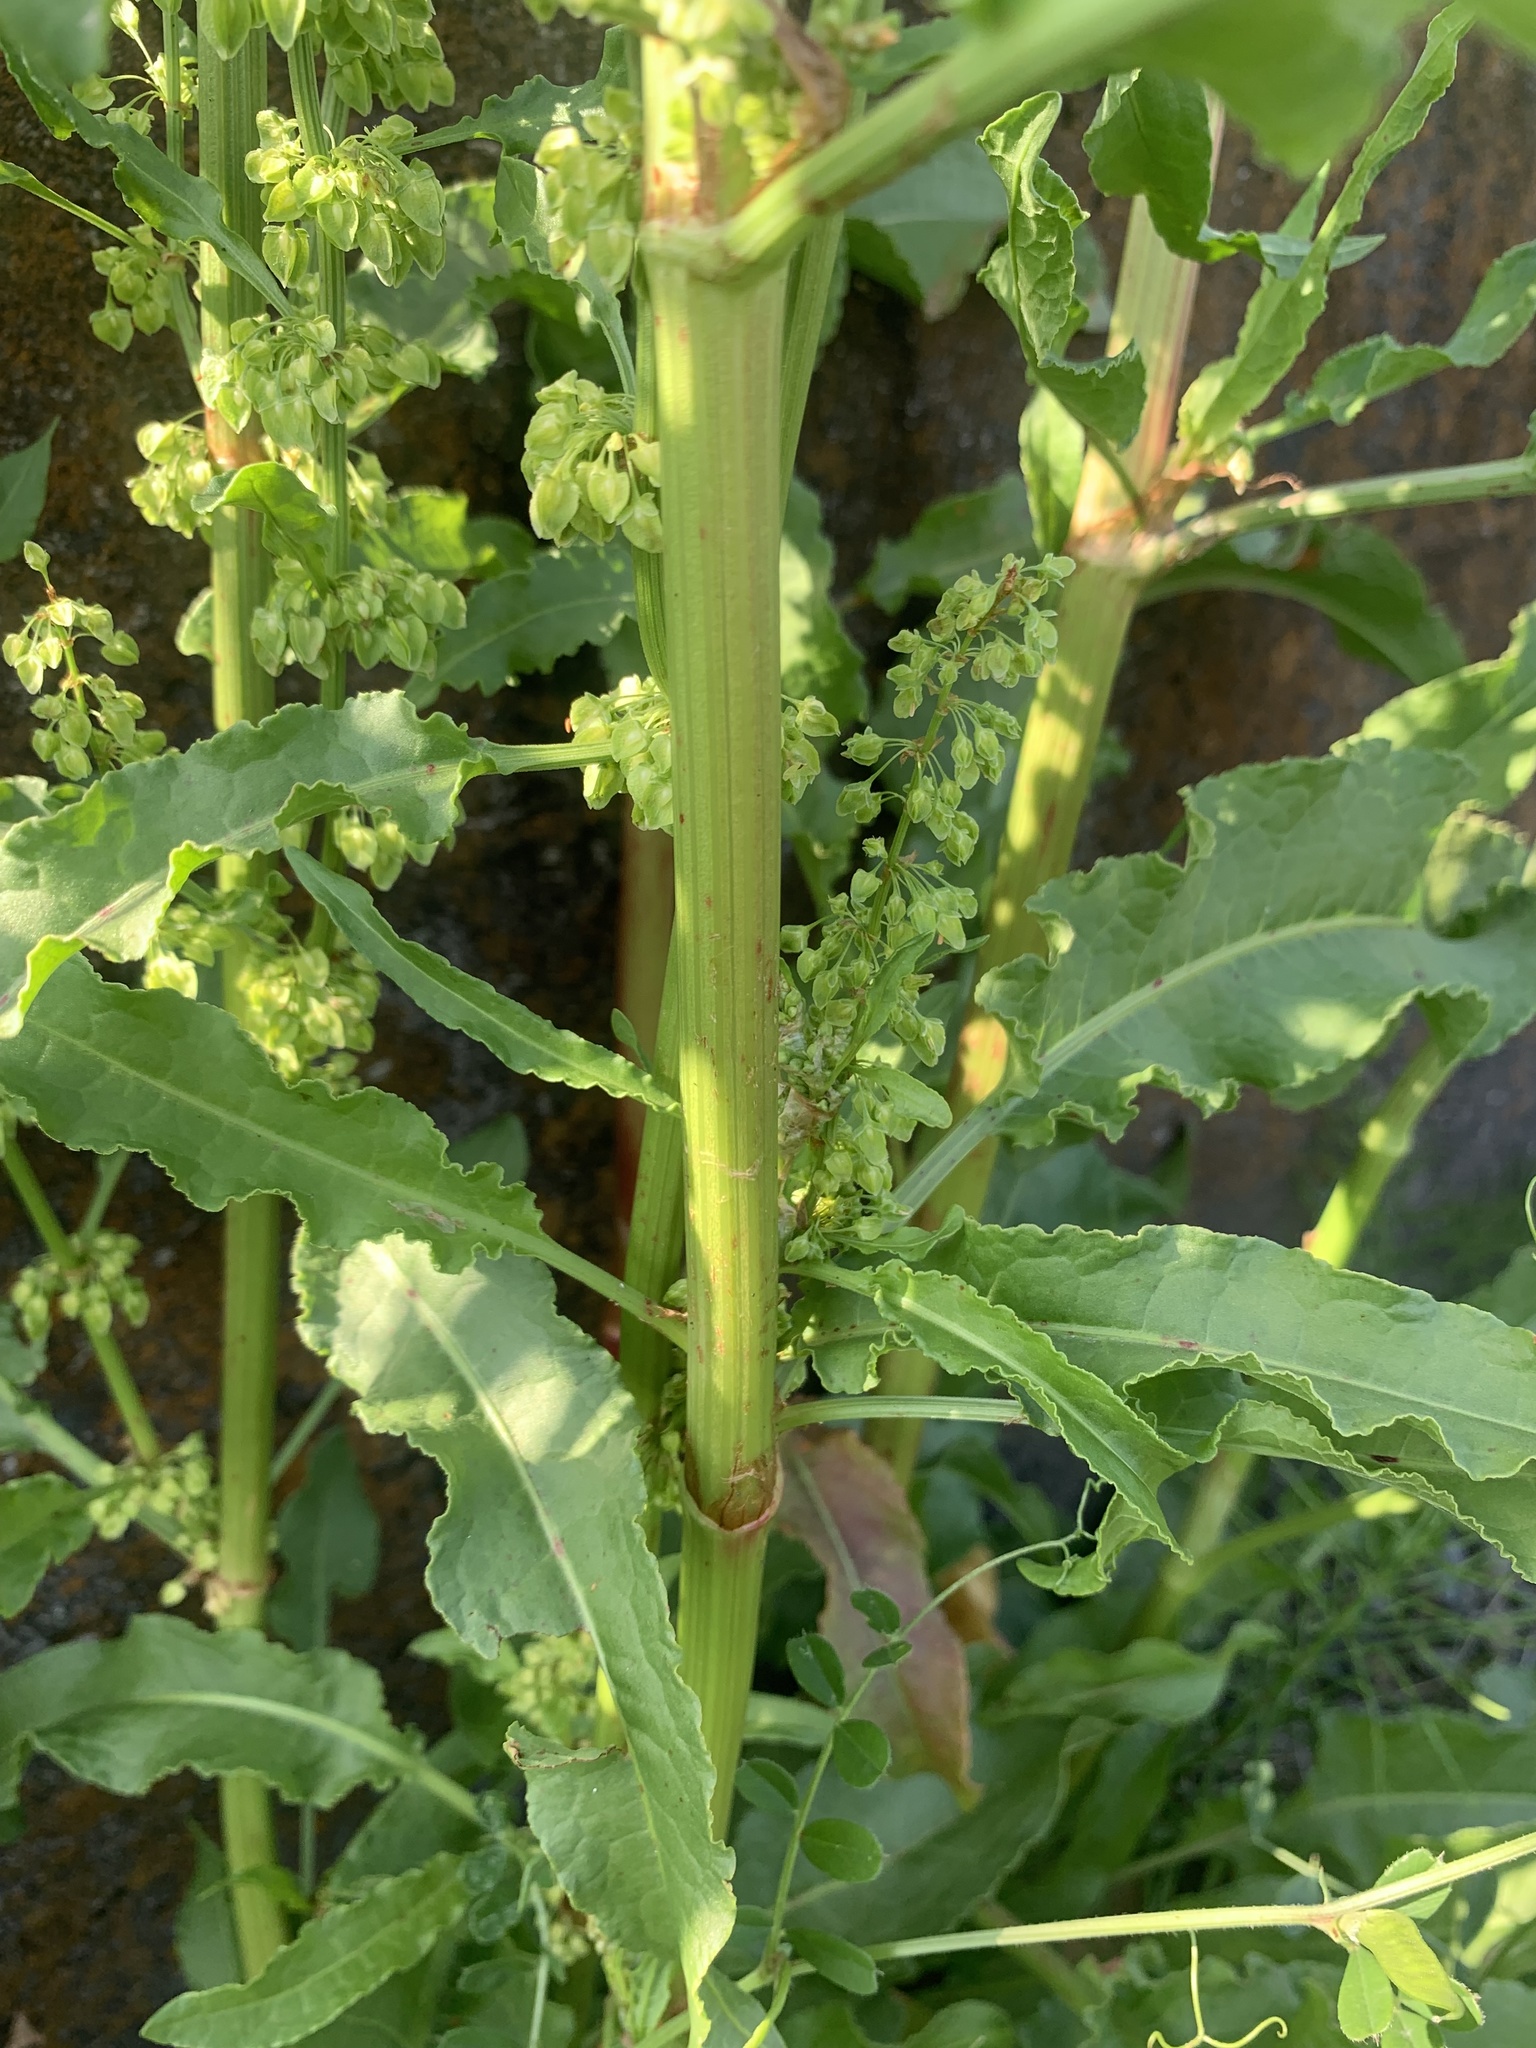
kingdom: Plantae
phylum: Tracheophyta
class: Magnoliopsida
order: Caryophyllales
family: Polygonaceae
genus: Rumex
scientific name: Rumex crispus
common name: Curled dock
